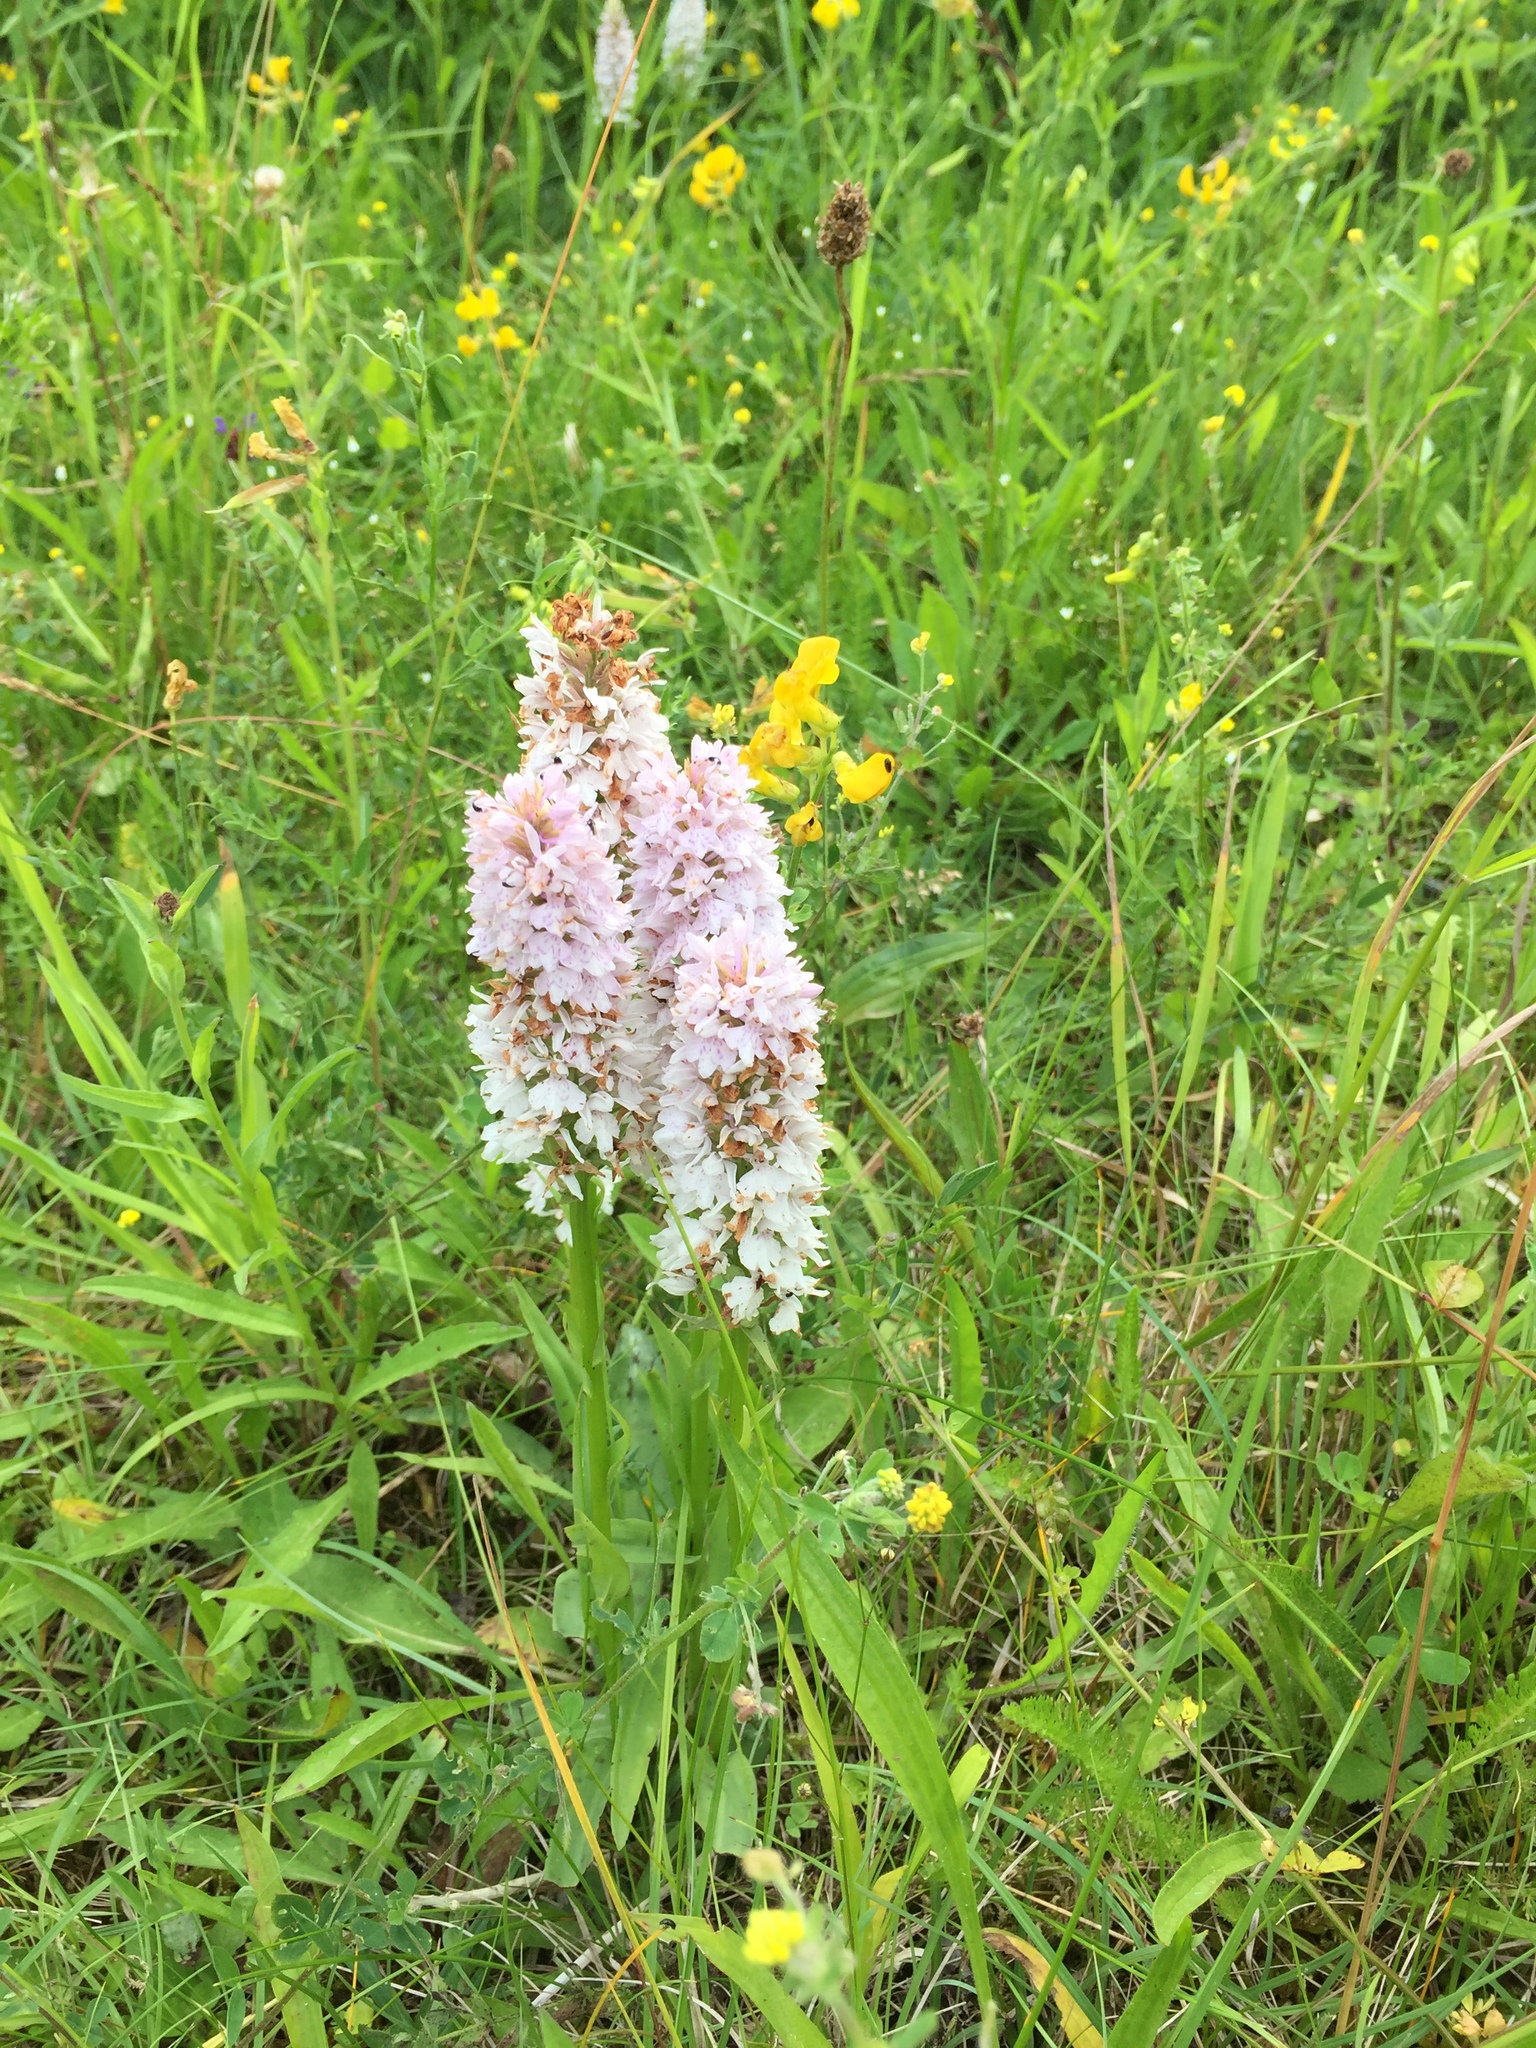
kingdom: Plantae
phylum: Tracheophyta
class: Liliopsida
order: Asparagales
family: Orchidaceae
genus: Dactylorhiza
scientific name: Dactylorhiza maculata
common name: Heath spotted-orchid
